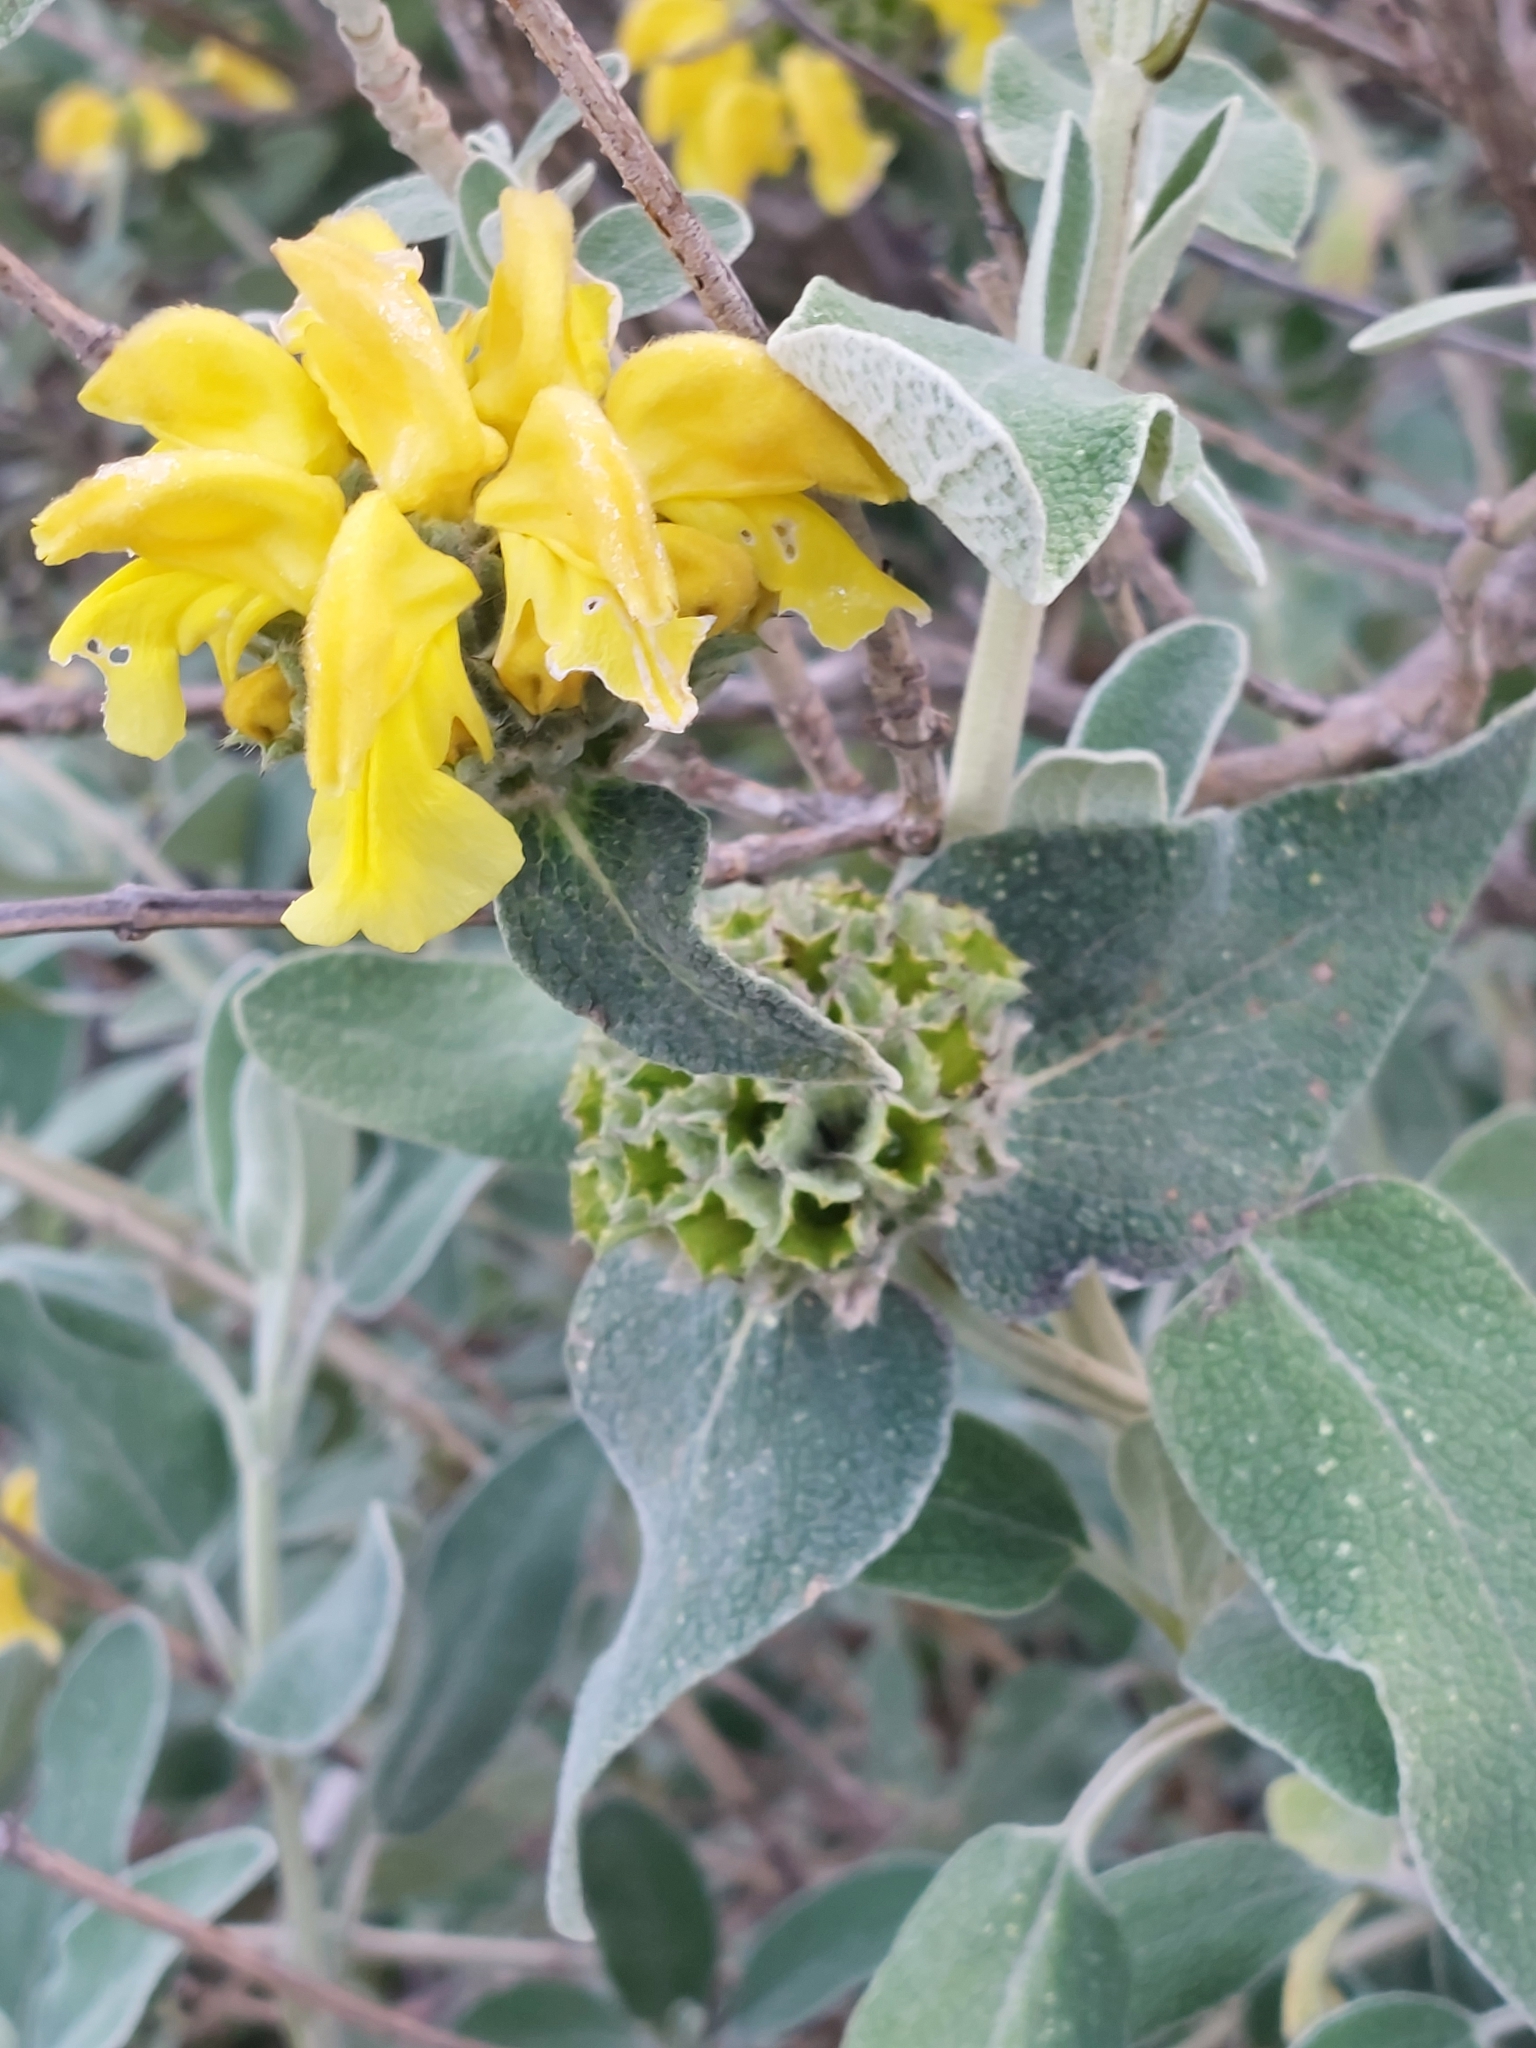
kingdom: Plantae
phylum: Tracheophyta
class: Magnoliopsida
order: Lamiales
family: Lamiaceae
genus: Phlomis
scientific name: Phlomis fruticosa
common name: Jerusalem sage
